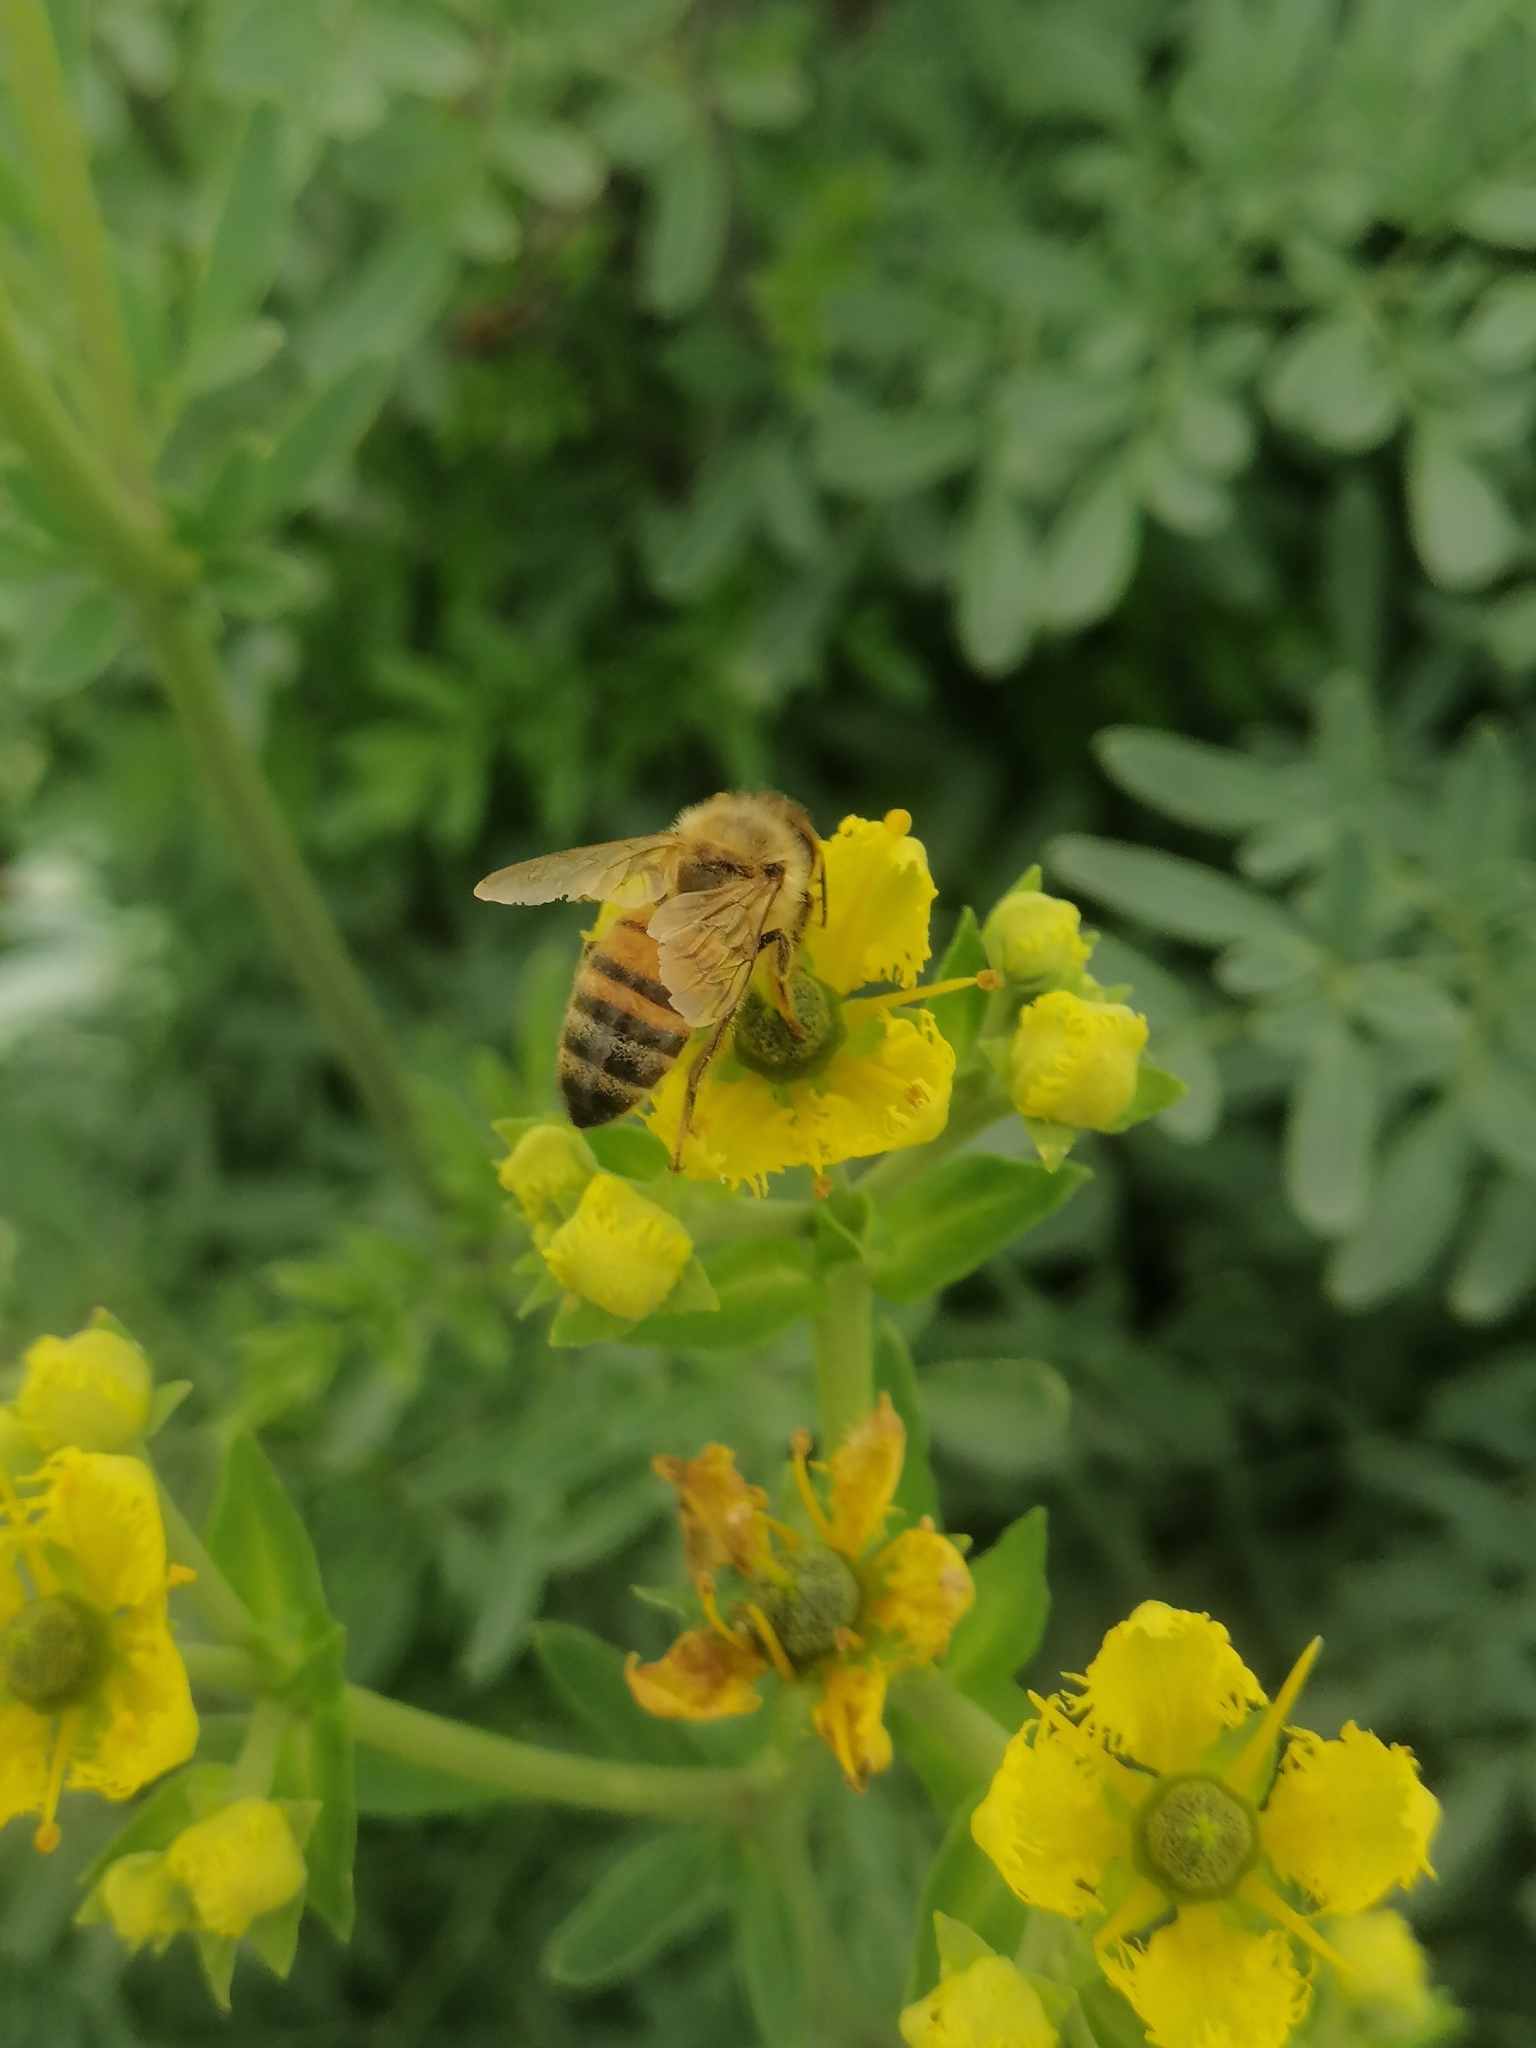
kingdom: Animalia
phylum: Arthropoda
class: Insecta
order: Hymenoptera
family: Apidae
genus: Apis
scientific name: Apis mellifera
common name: Honey bee
